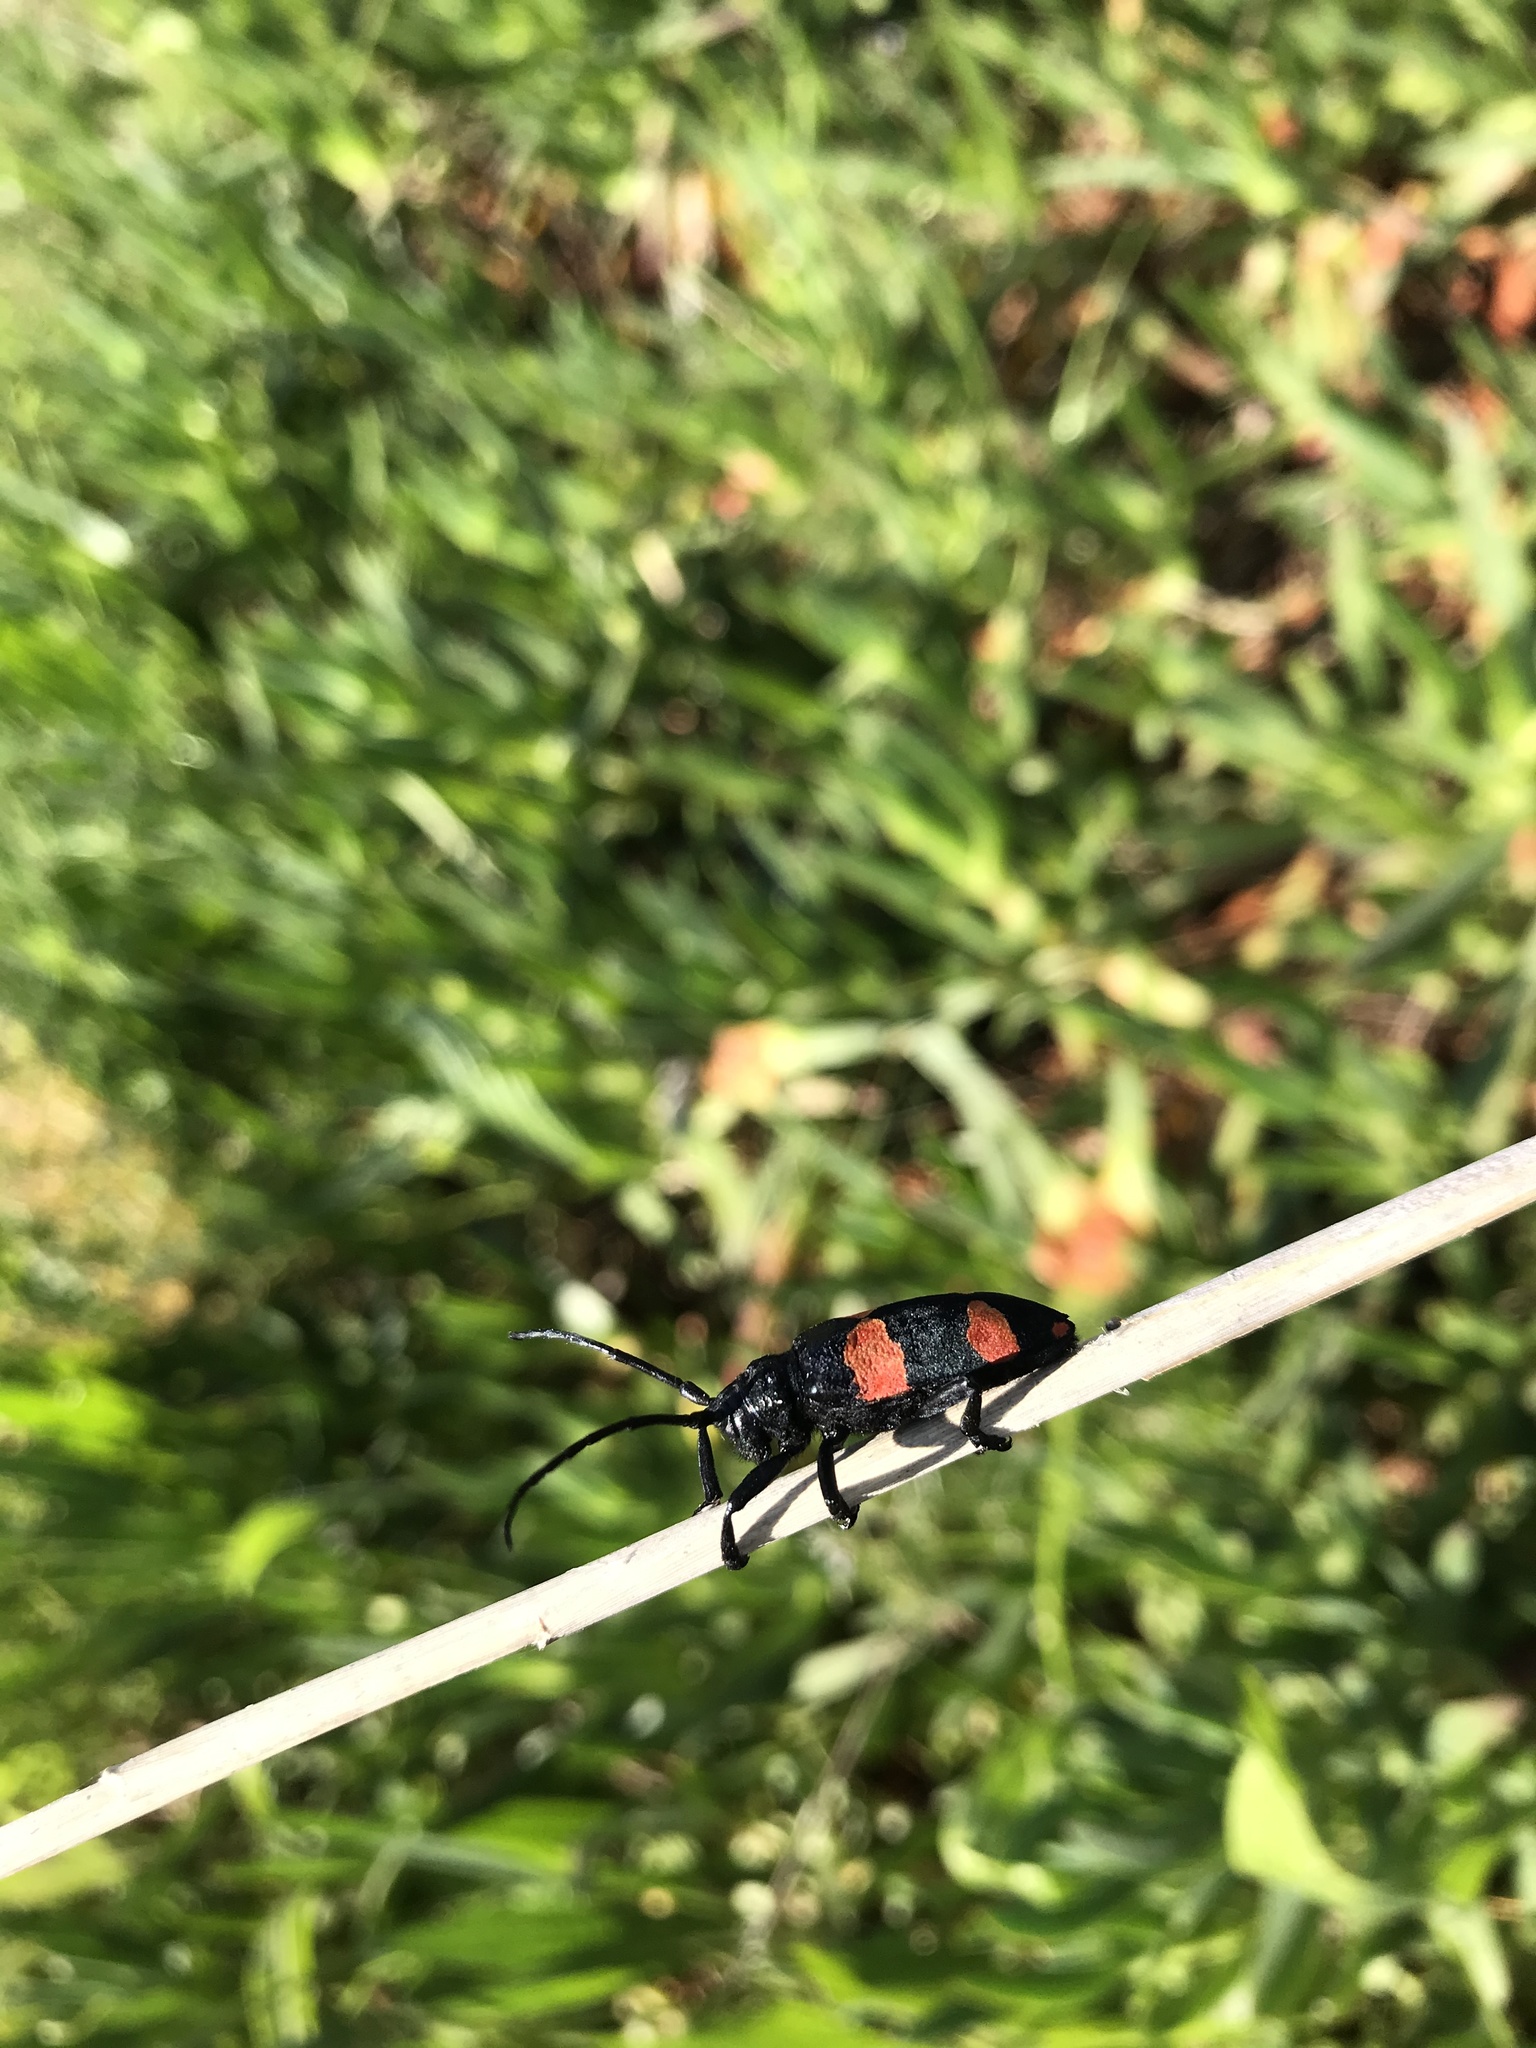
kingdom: Animalia
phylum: Arthropoda
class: Insecta
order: Coleoptera
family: Cerambycidae
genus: Ceroplesis
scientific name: Ceroplesis aethiops
